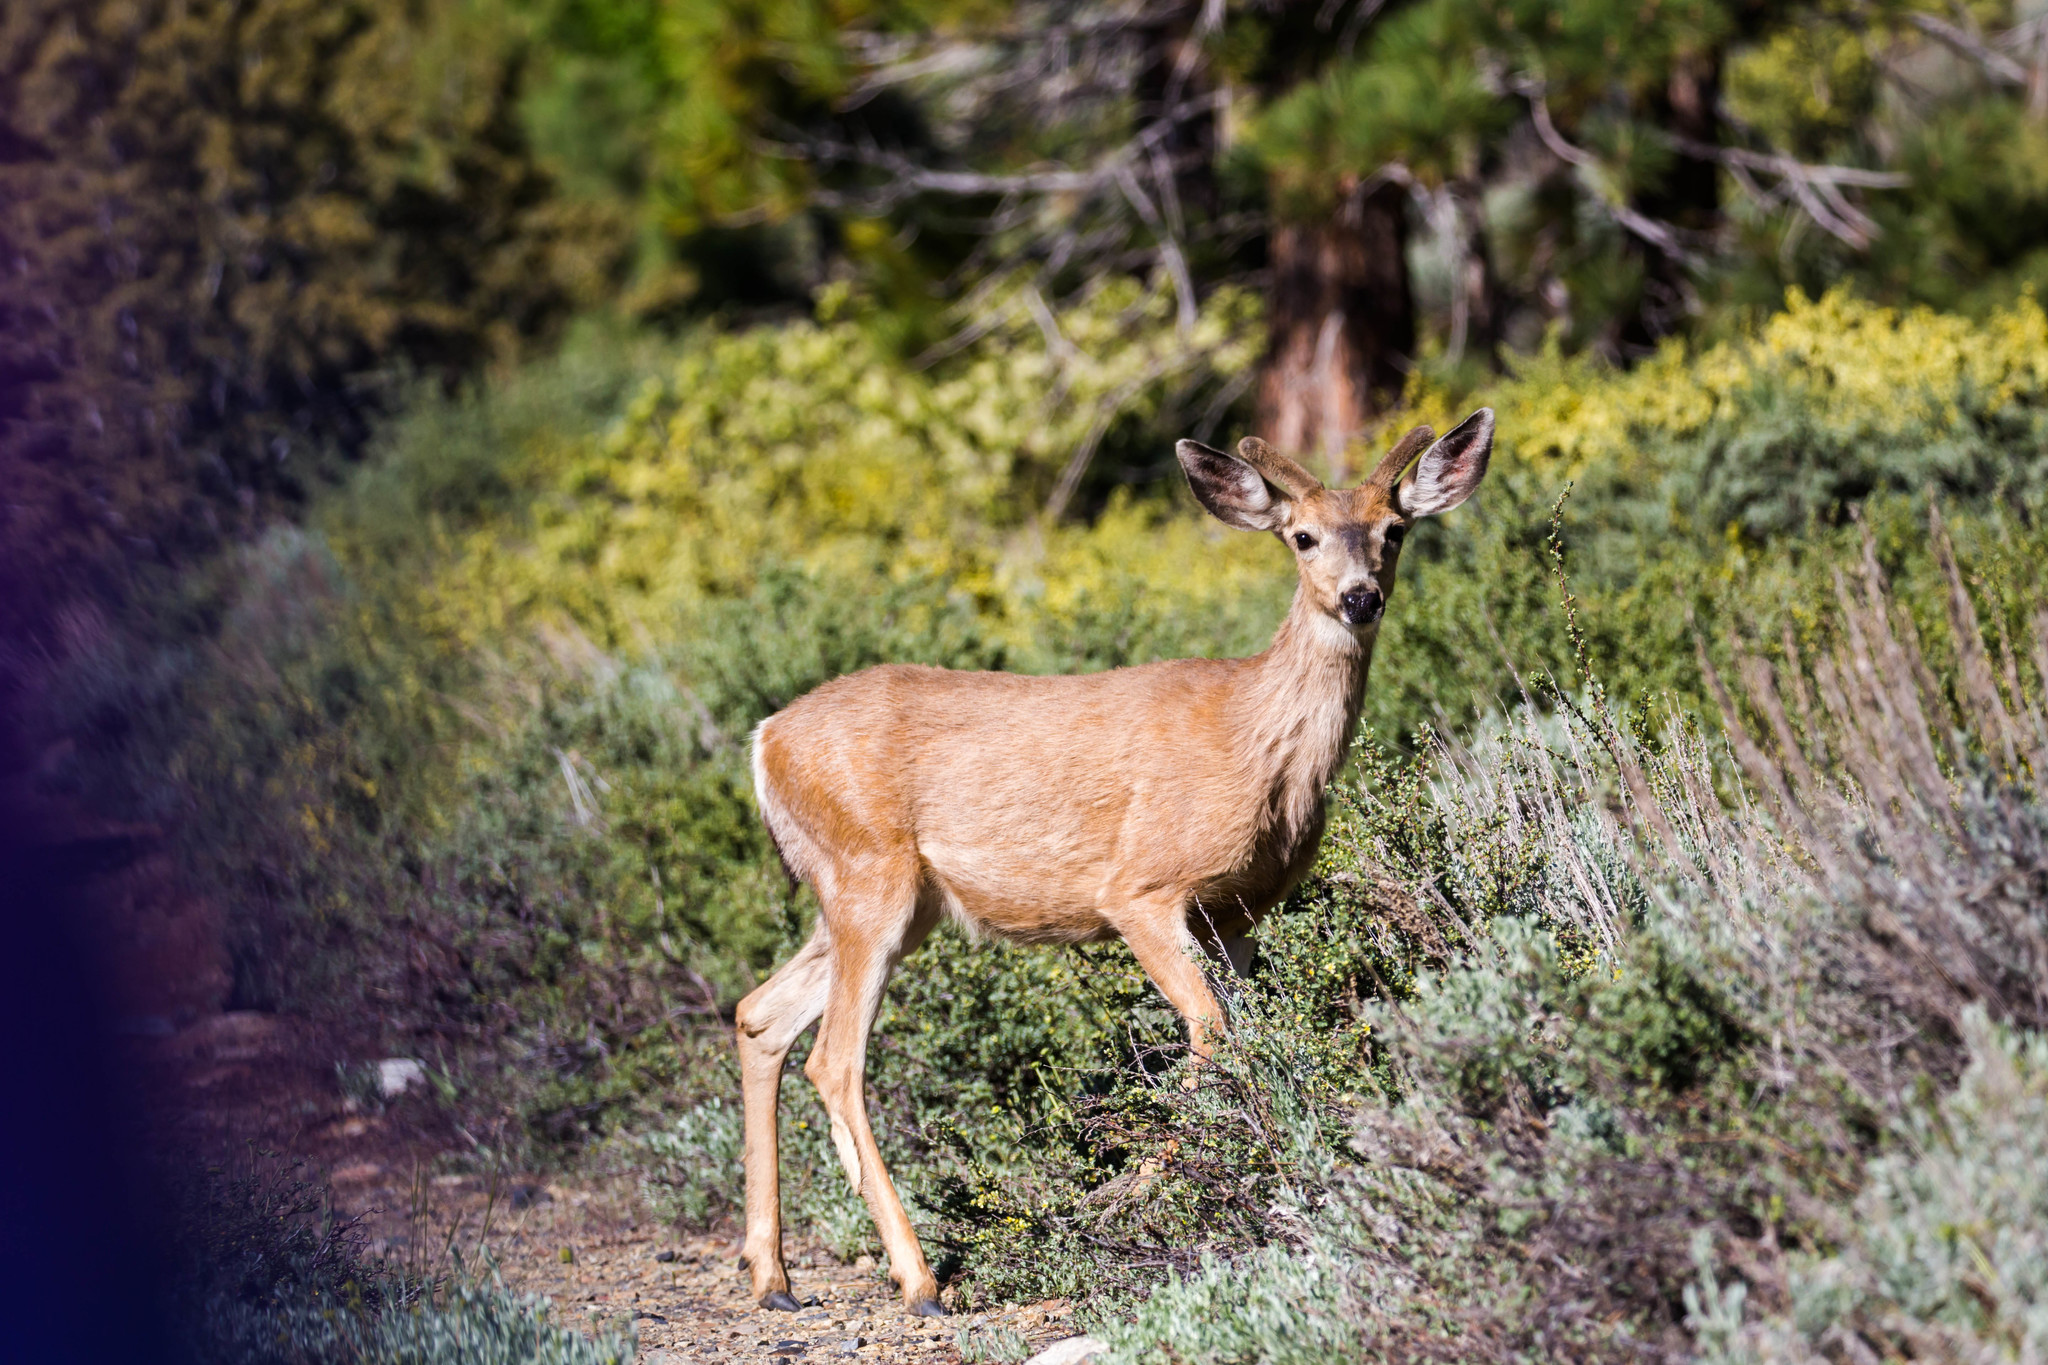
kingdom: Animalia
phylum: Chordata
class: Mammalia
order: Artiodactyla
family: Cervidae
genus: Odocoileus
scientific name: Odocoileus hemionus
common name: Mule deer
